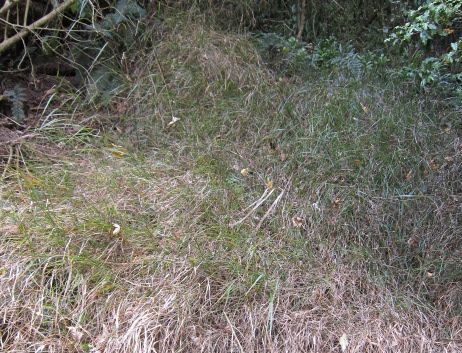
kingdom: Plantae
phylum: Tracheophyta
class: Liliopsida
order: Poales
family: Poaceae
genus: Microlaena
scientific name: Microlaena polynoda
